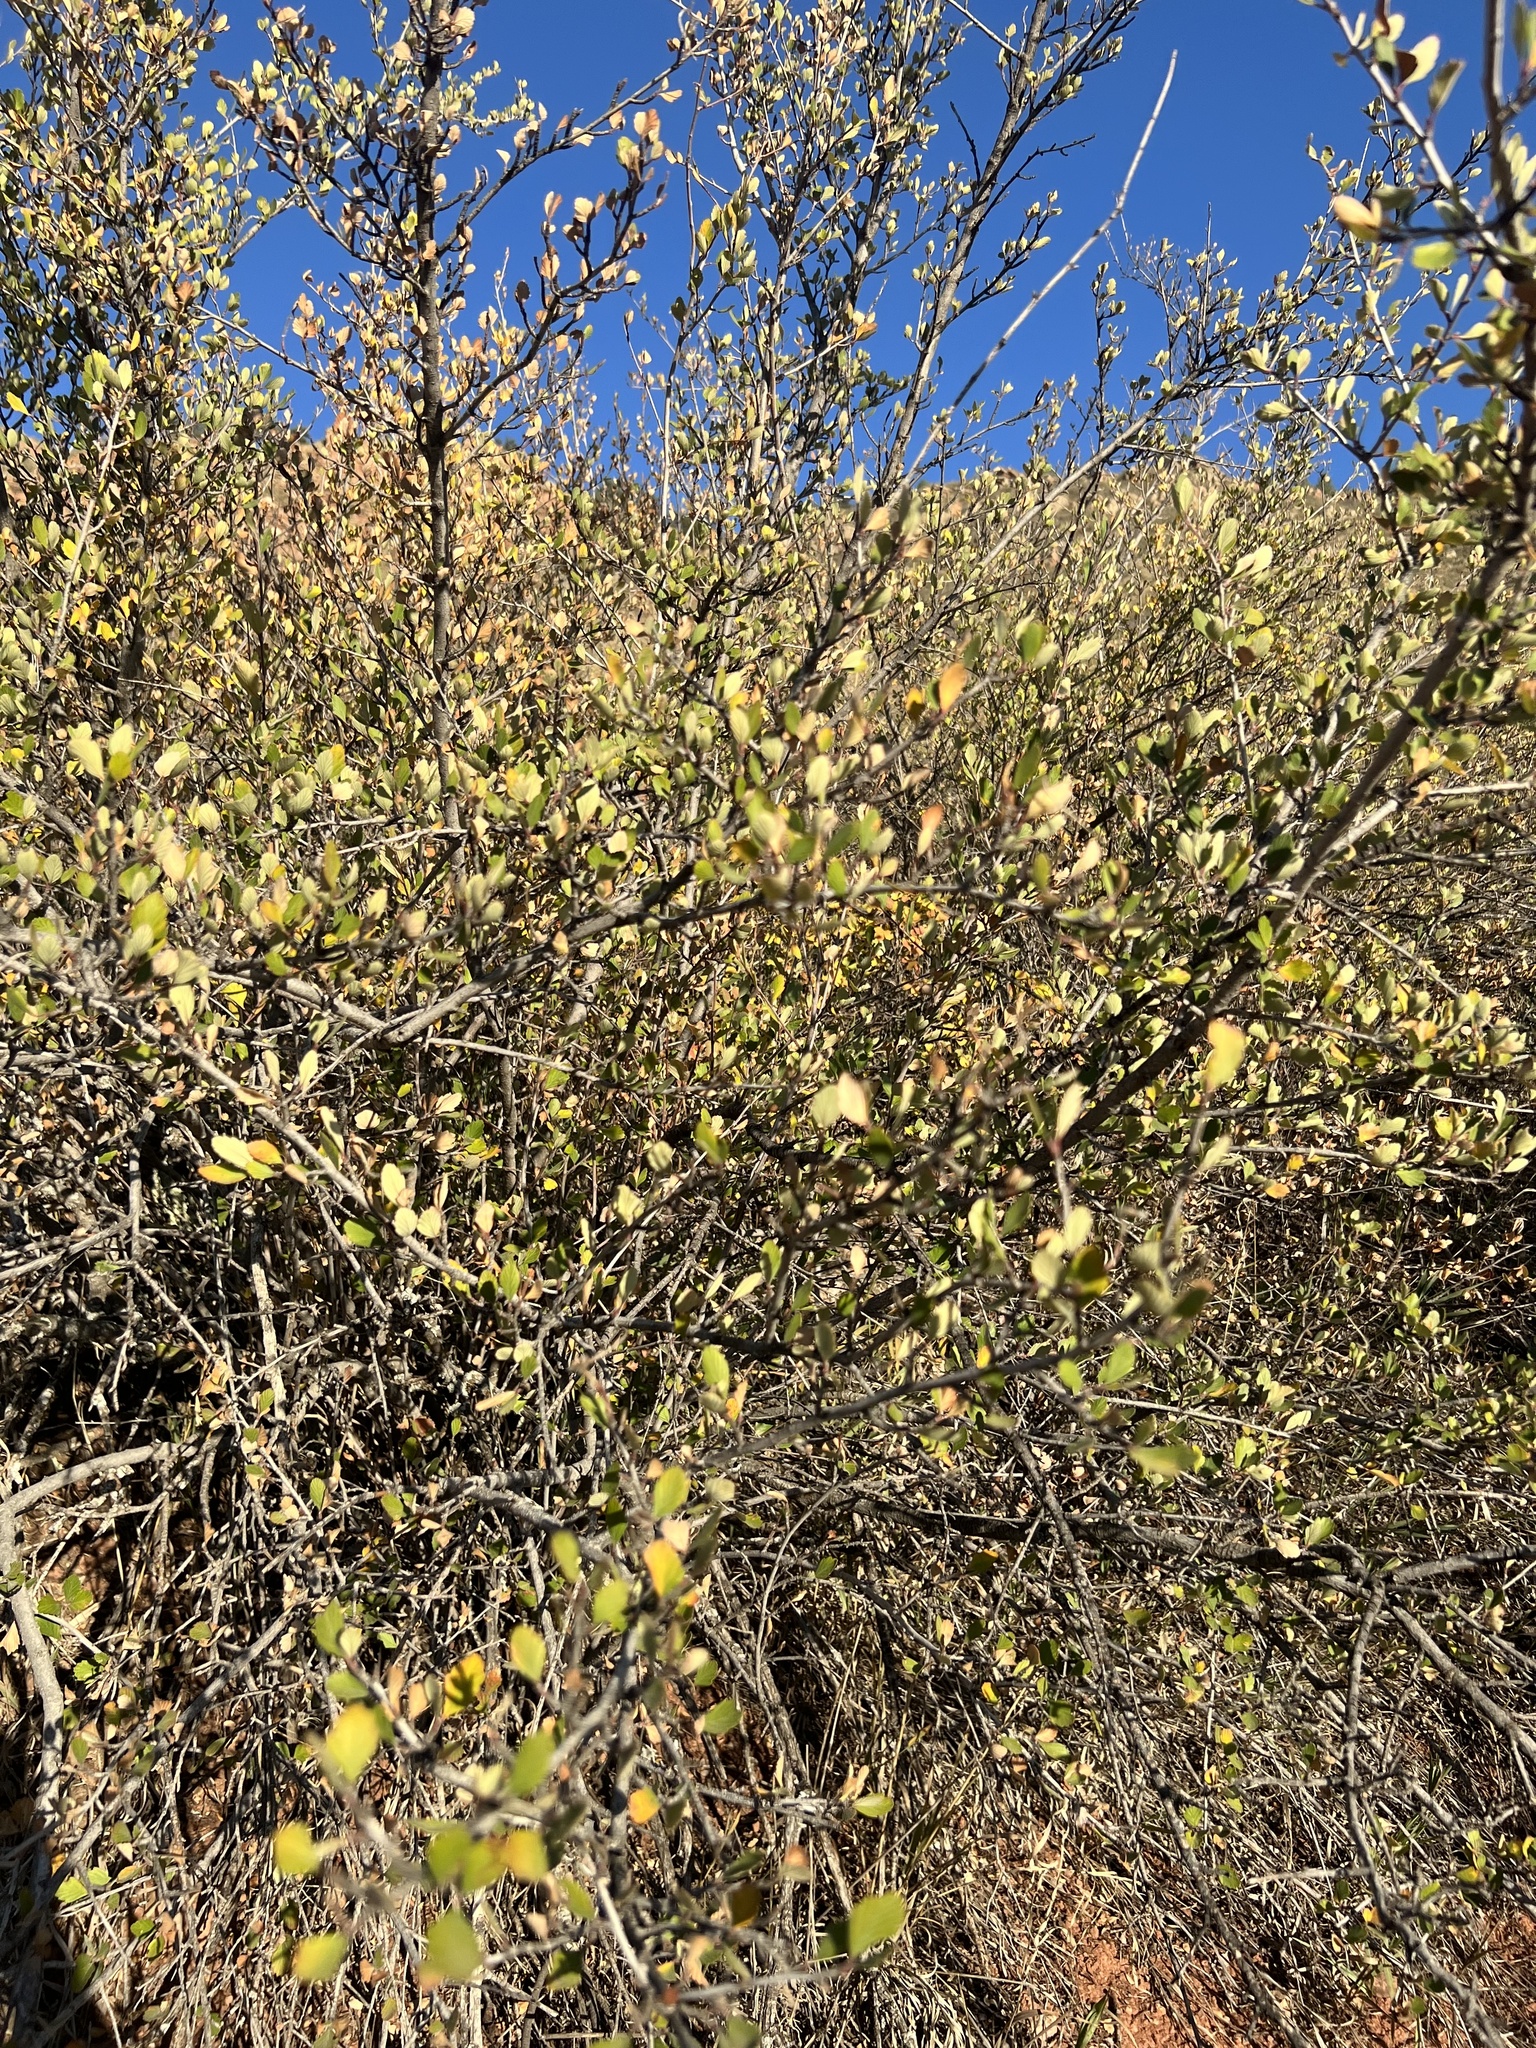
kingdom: Plantae
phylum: Tracheophyta
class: Magnoliopsida
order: Rosales
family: Rosaceae
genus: Cercocarpus
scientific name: Cercocarpus montanus
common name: Alder-leaf cercocarpus
